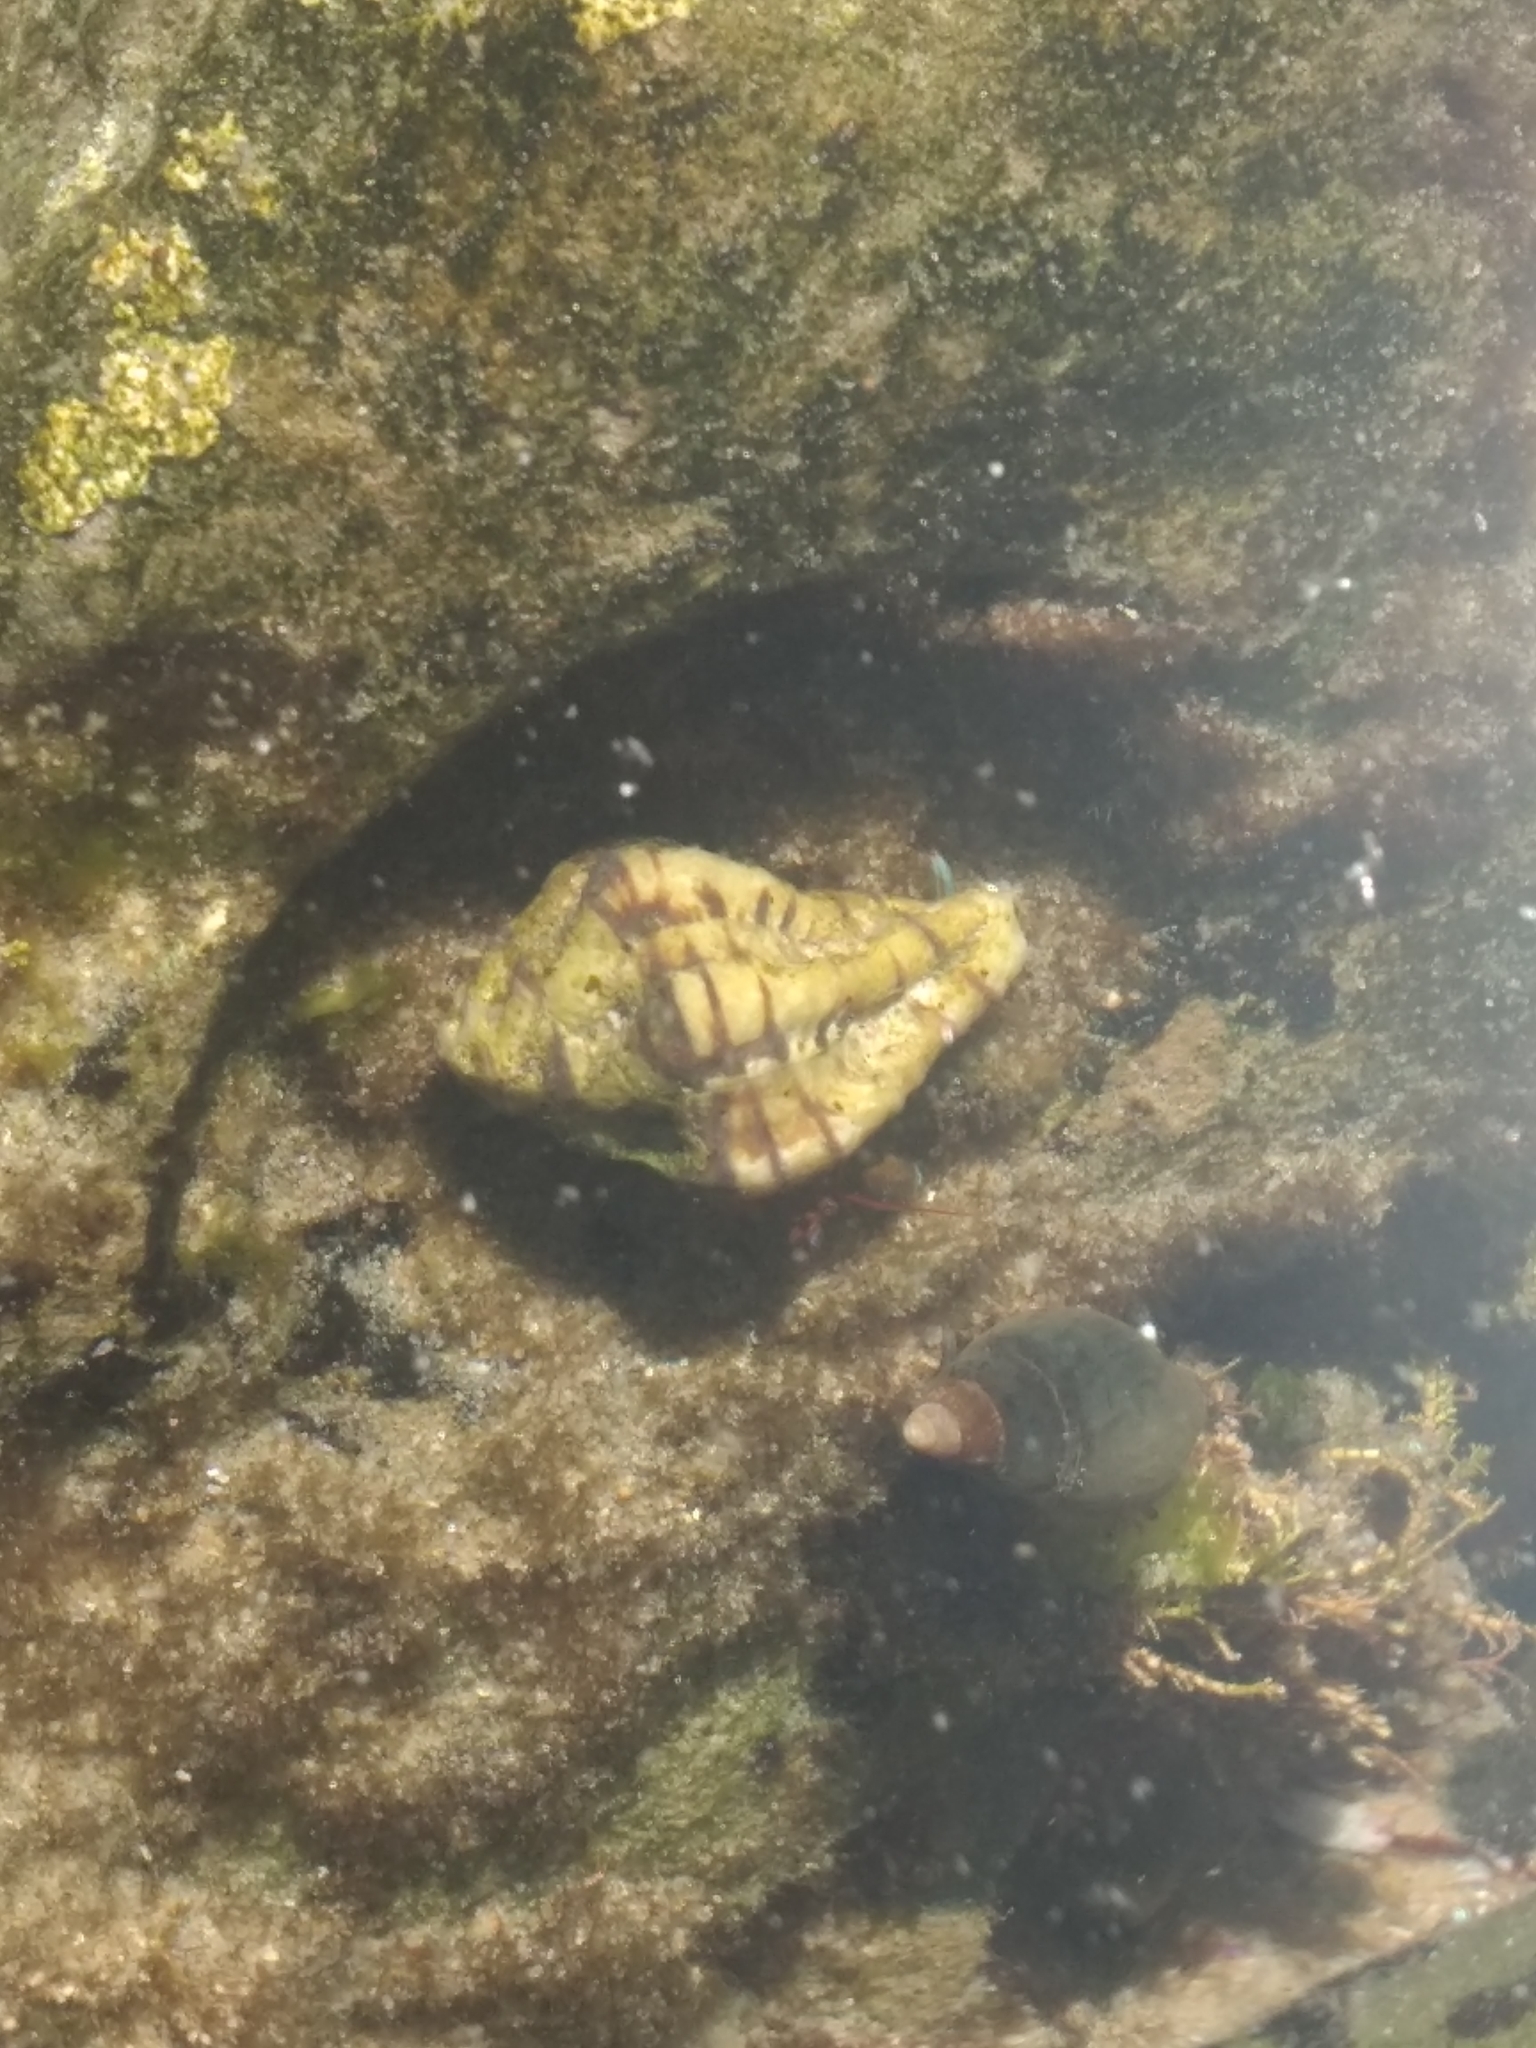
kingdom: Animalia
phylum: Mollusca
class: Gastropoda
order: Neogastropoda
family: Muricidae
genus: Maxwellia
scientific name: Maxwellia gemma
